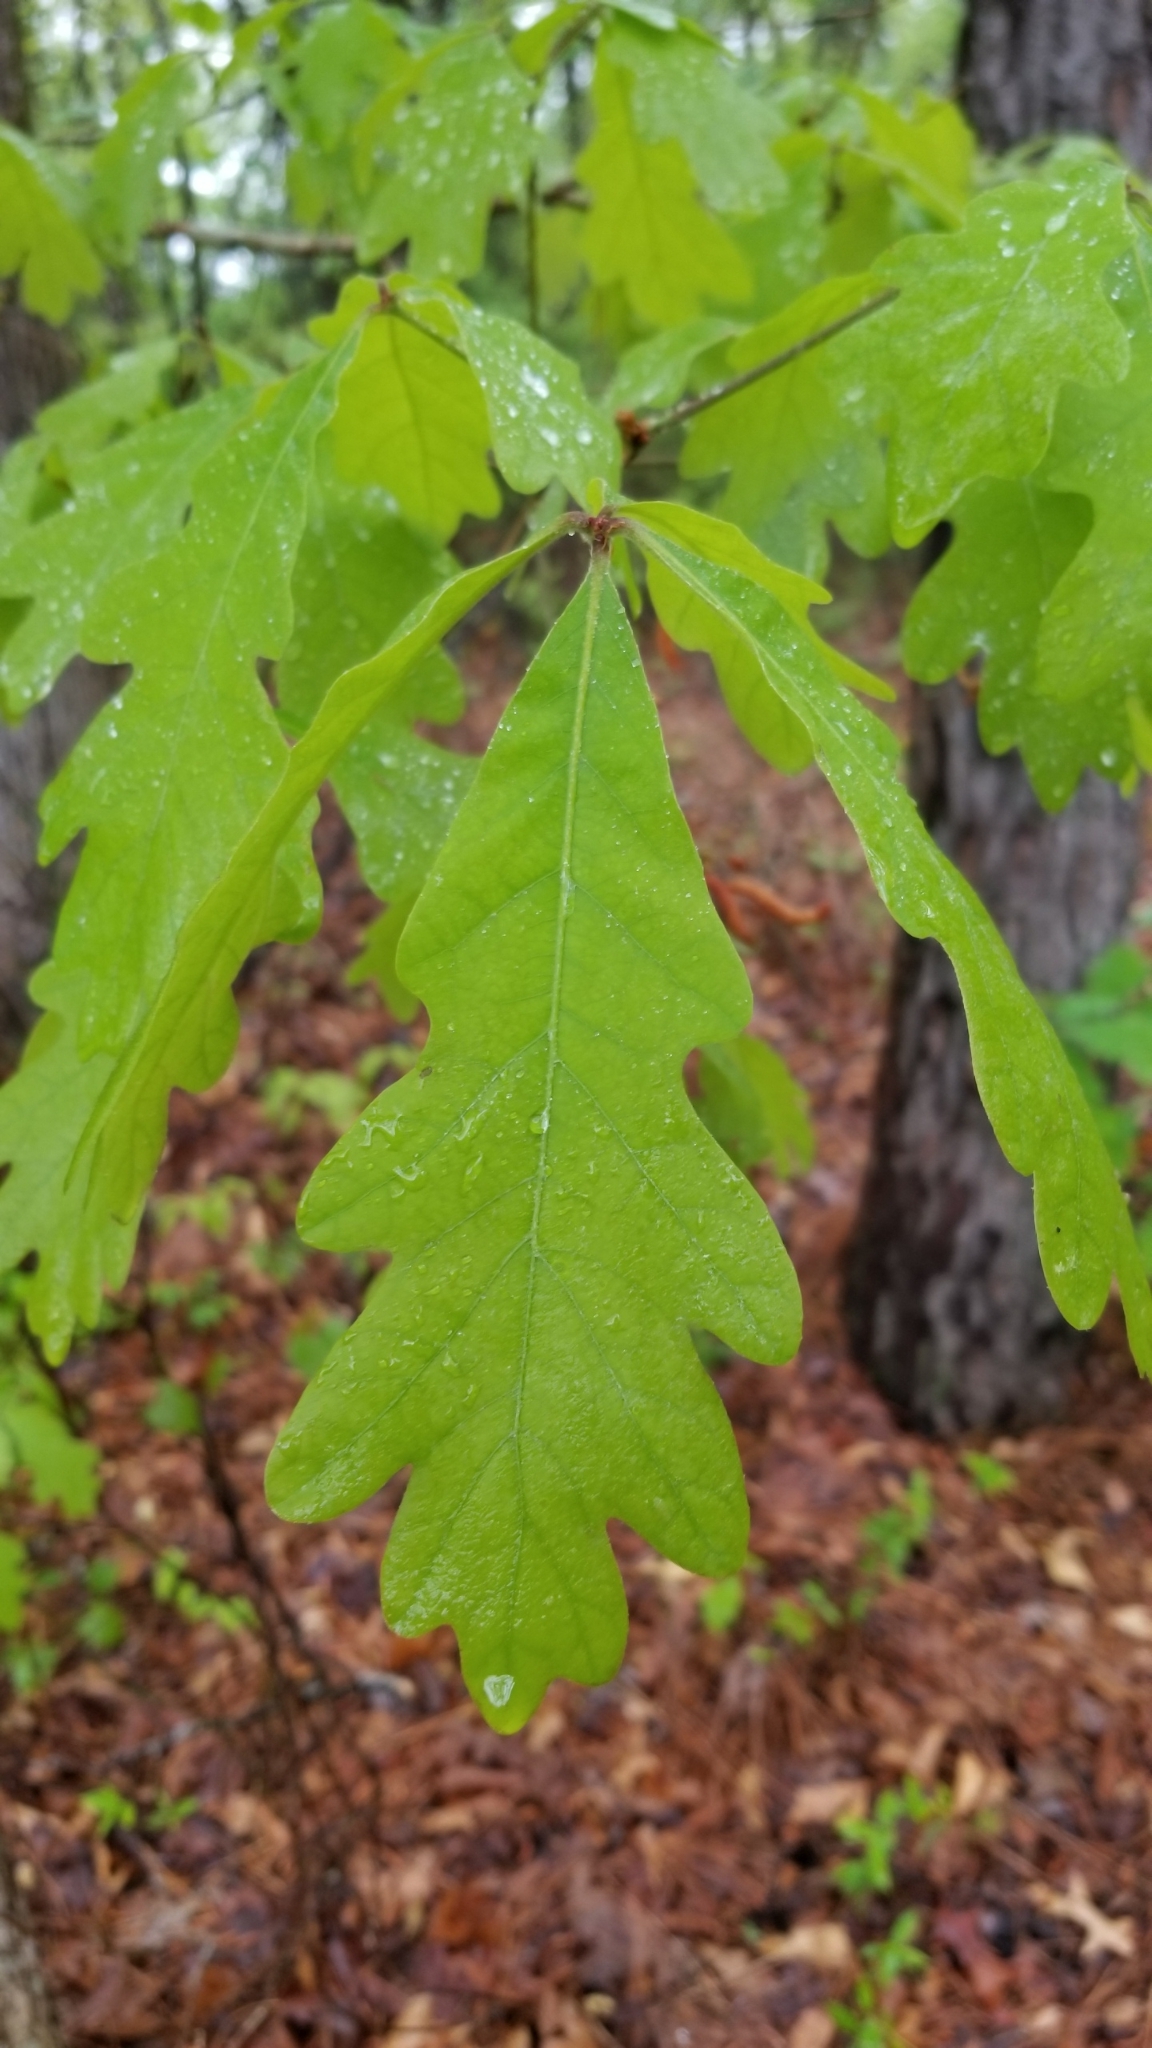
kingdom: Plantae
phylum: Tracheophyta
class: Magnoliopsida
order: Fagales
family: Fagaceae
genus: Quercus
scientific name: Quercus alba
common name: White oak
